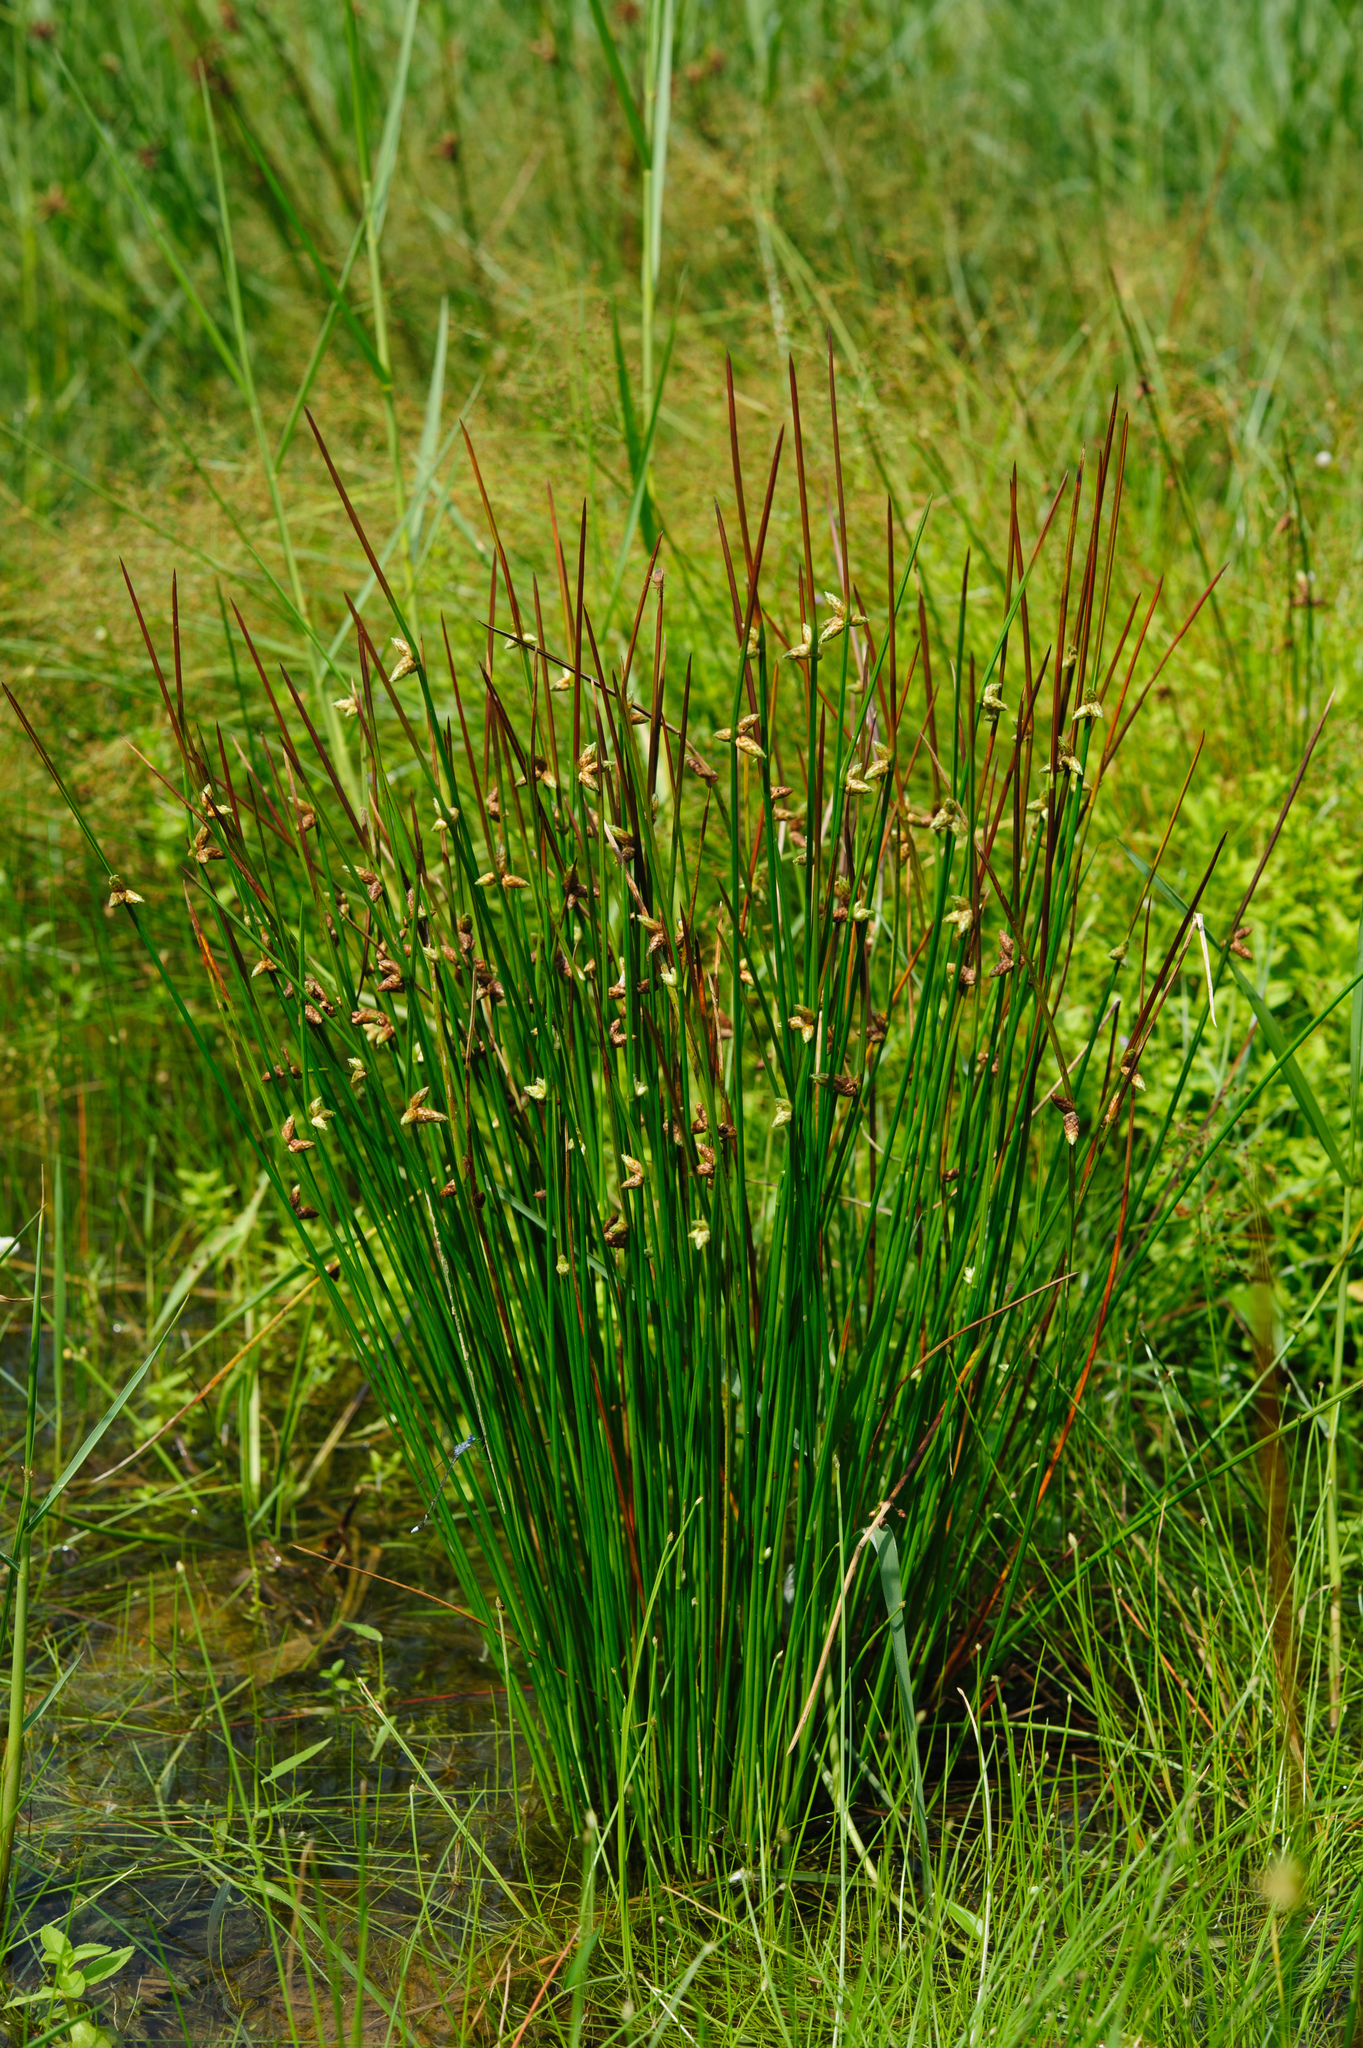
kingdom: Plantae
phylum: Tracheophyta
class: Liliopsida
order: Poales
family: Cyperaceae
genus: Schoenoplectiella
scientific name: Schoenoplectiella juncoides
